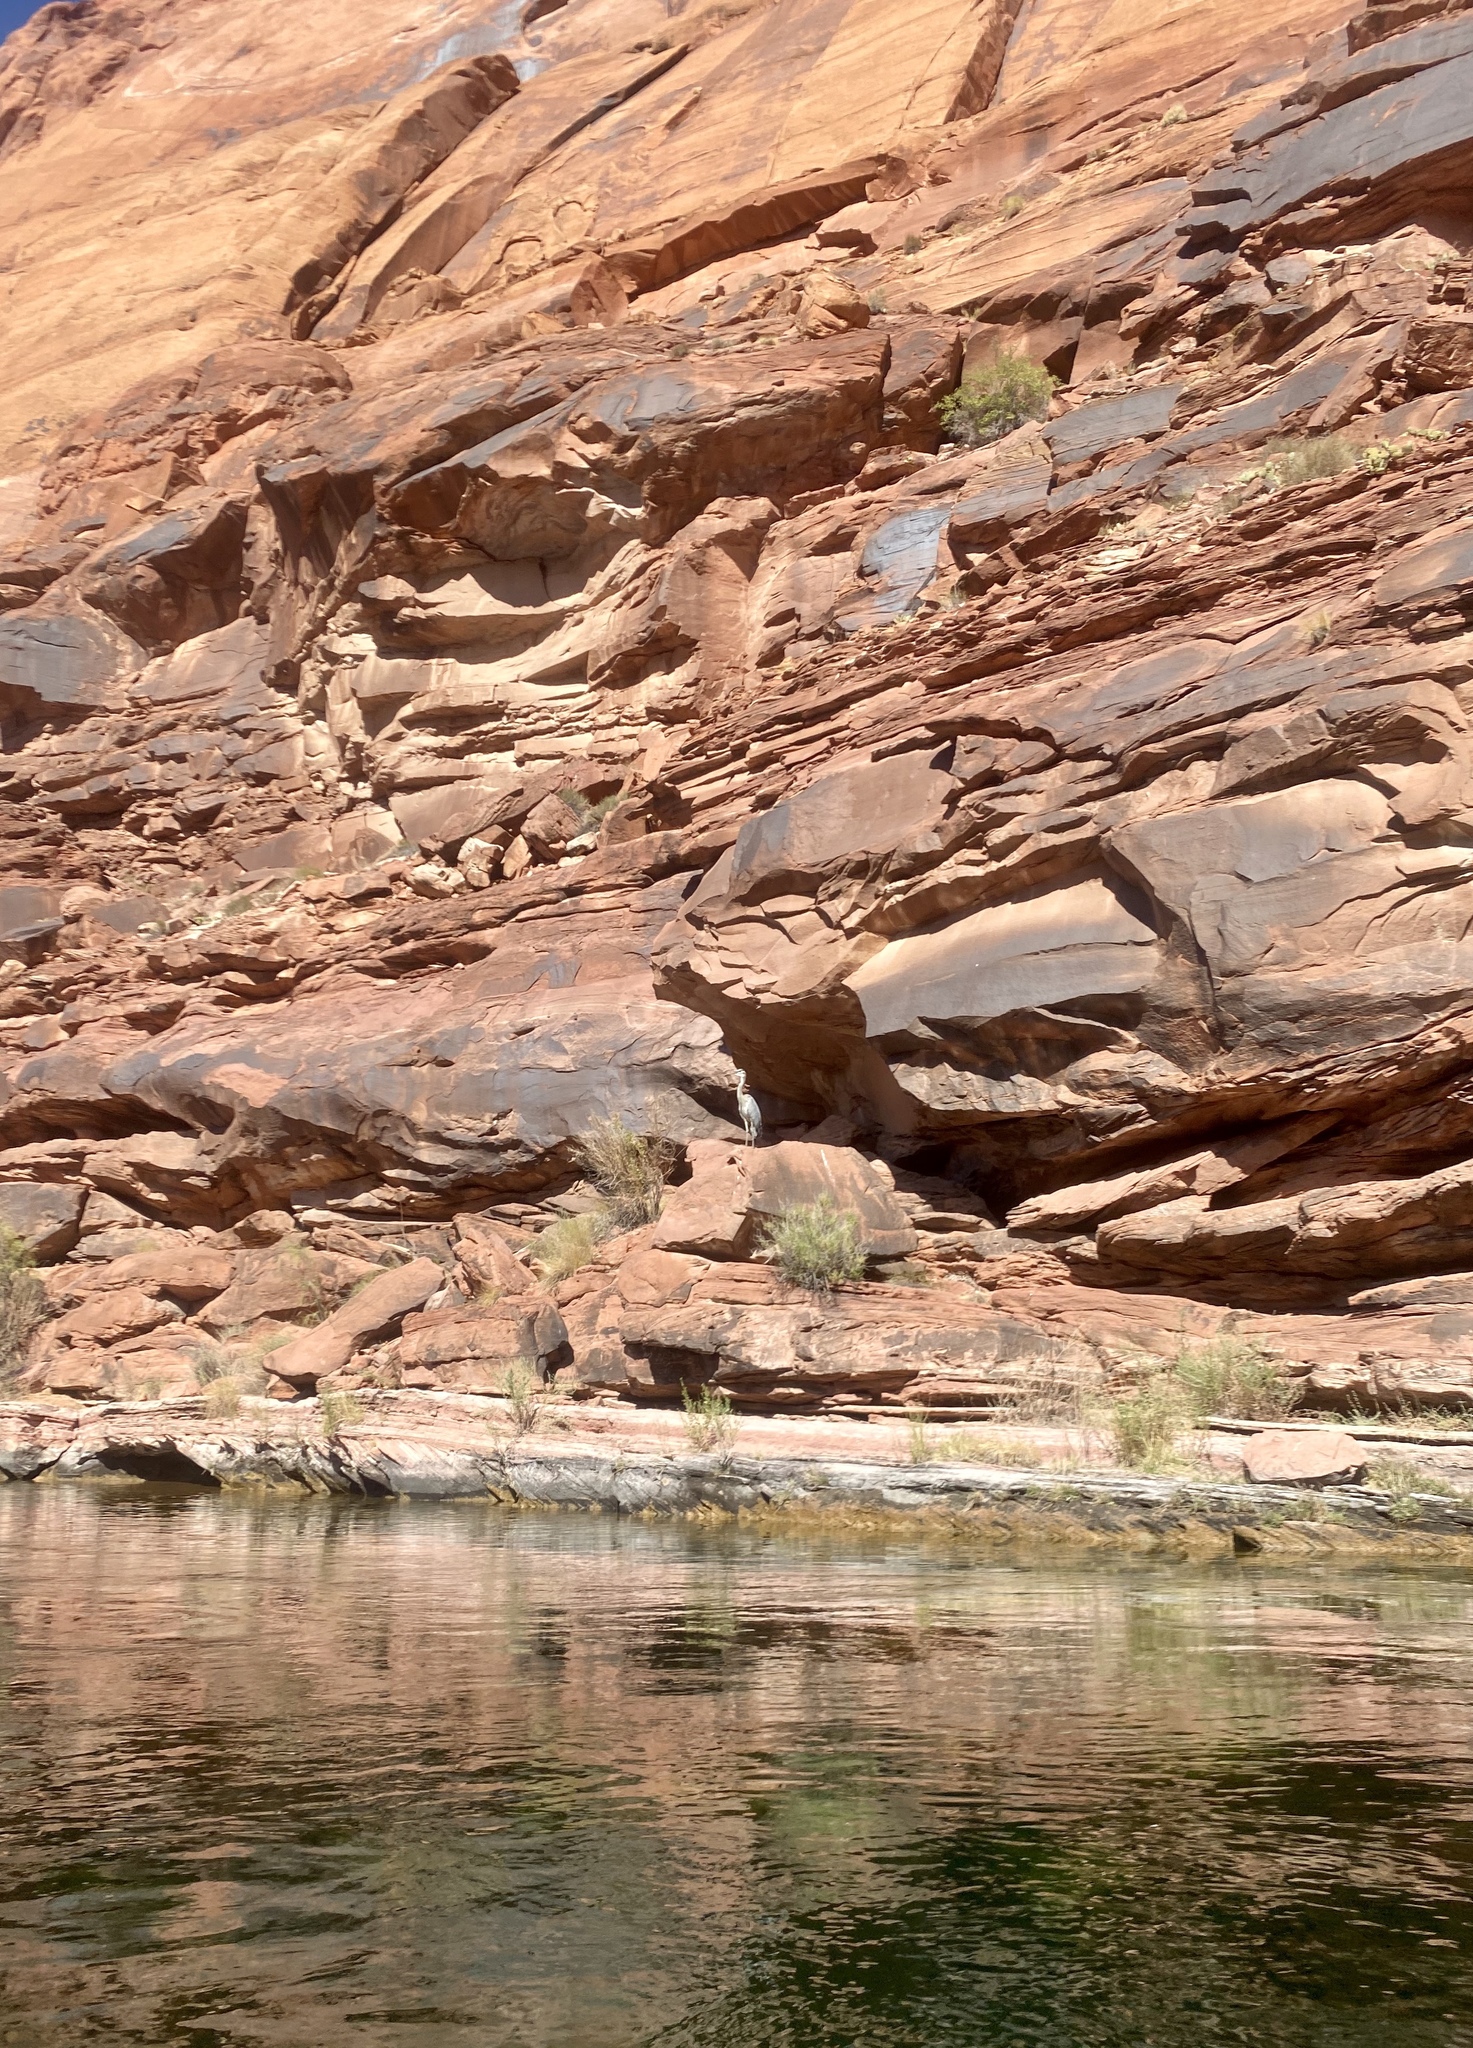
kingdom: Animalia
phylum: Chordata
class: Aves
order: Pelecaniformes
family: Ardeidae
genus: Ardea
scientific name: Ardea herodias
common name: Great blue heron
